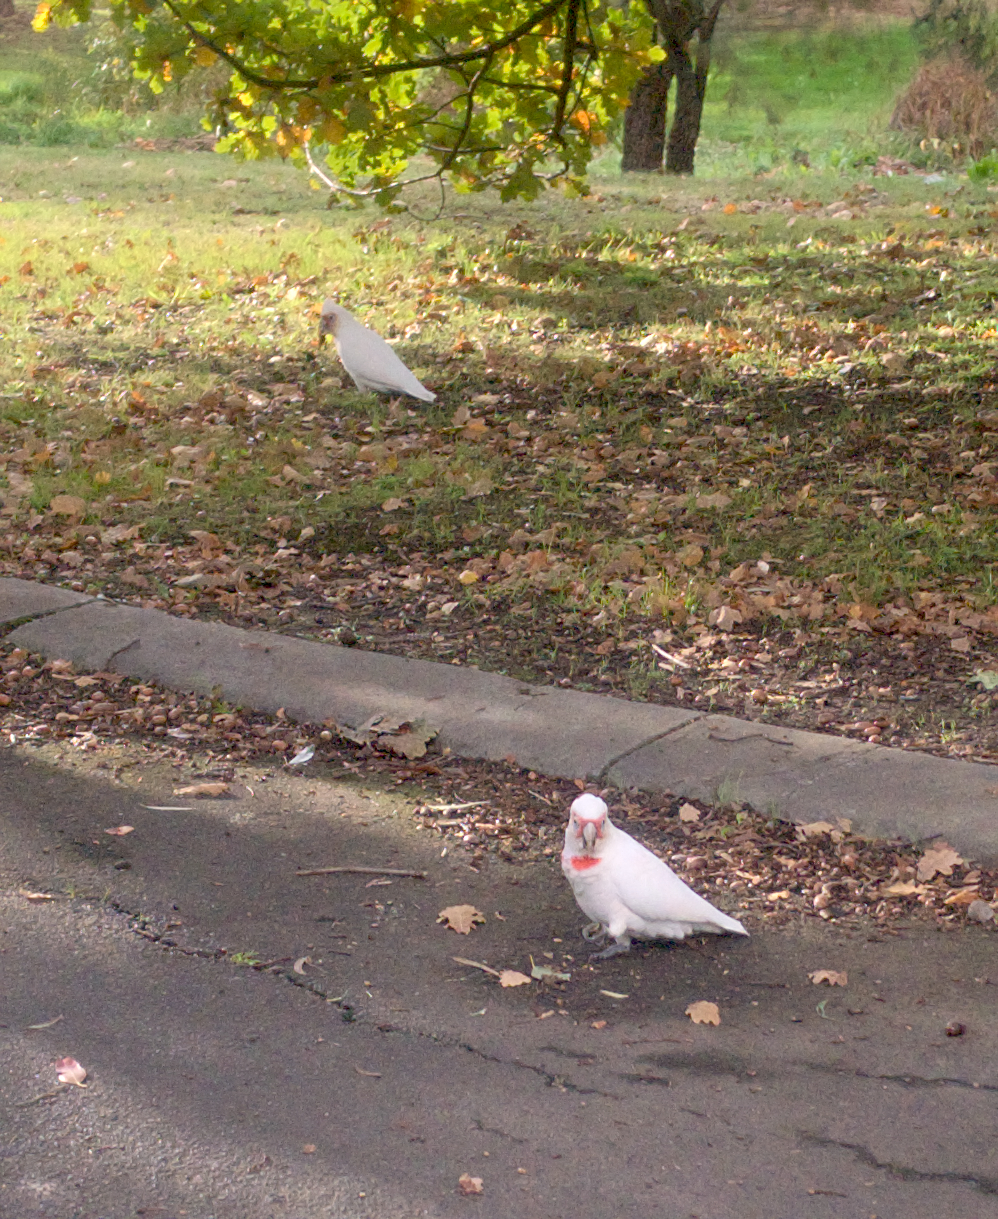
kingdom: Animalia
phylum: Chordata
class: Aves
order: Psittaciformes
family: Psittacidae
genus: Cacatua
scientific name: Cacatua tenuirostris
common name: Long-billed corella
